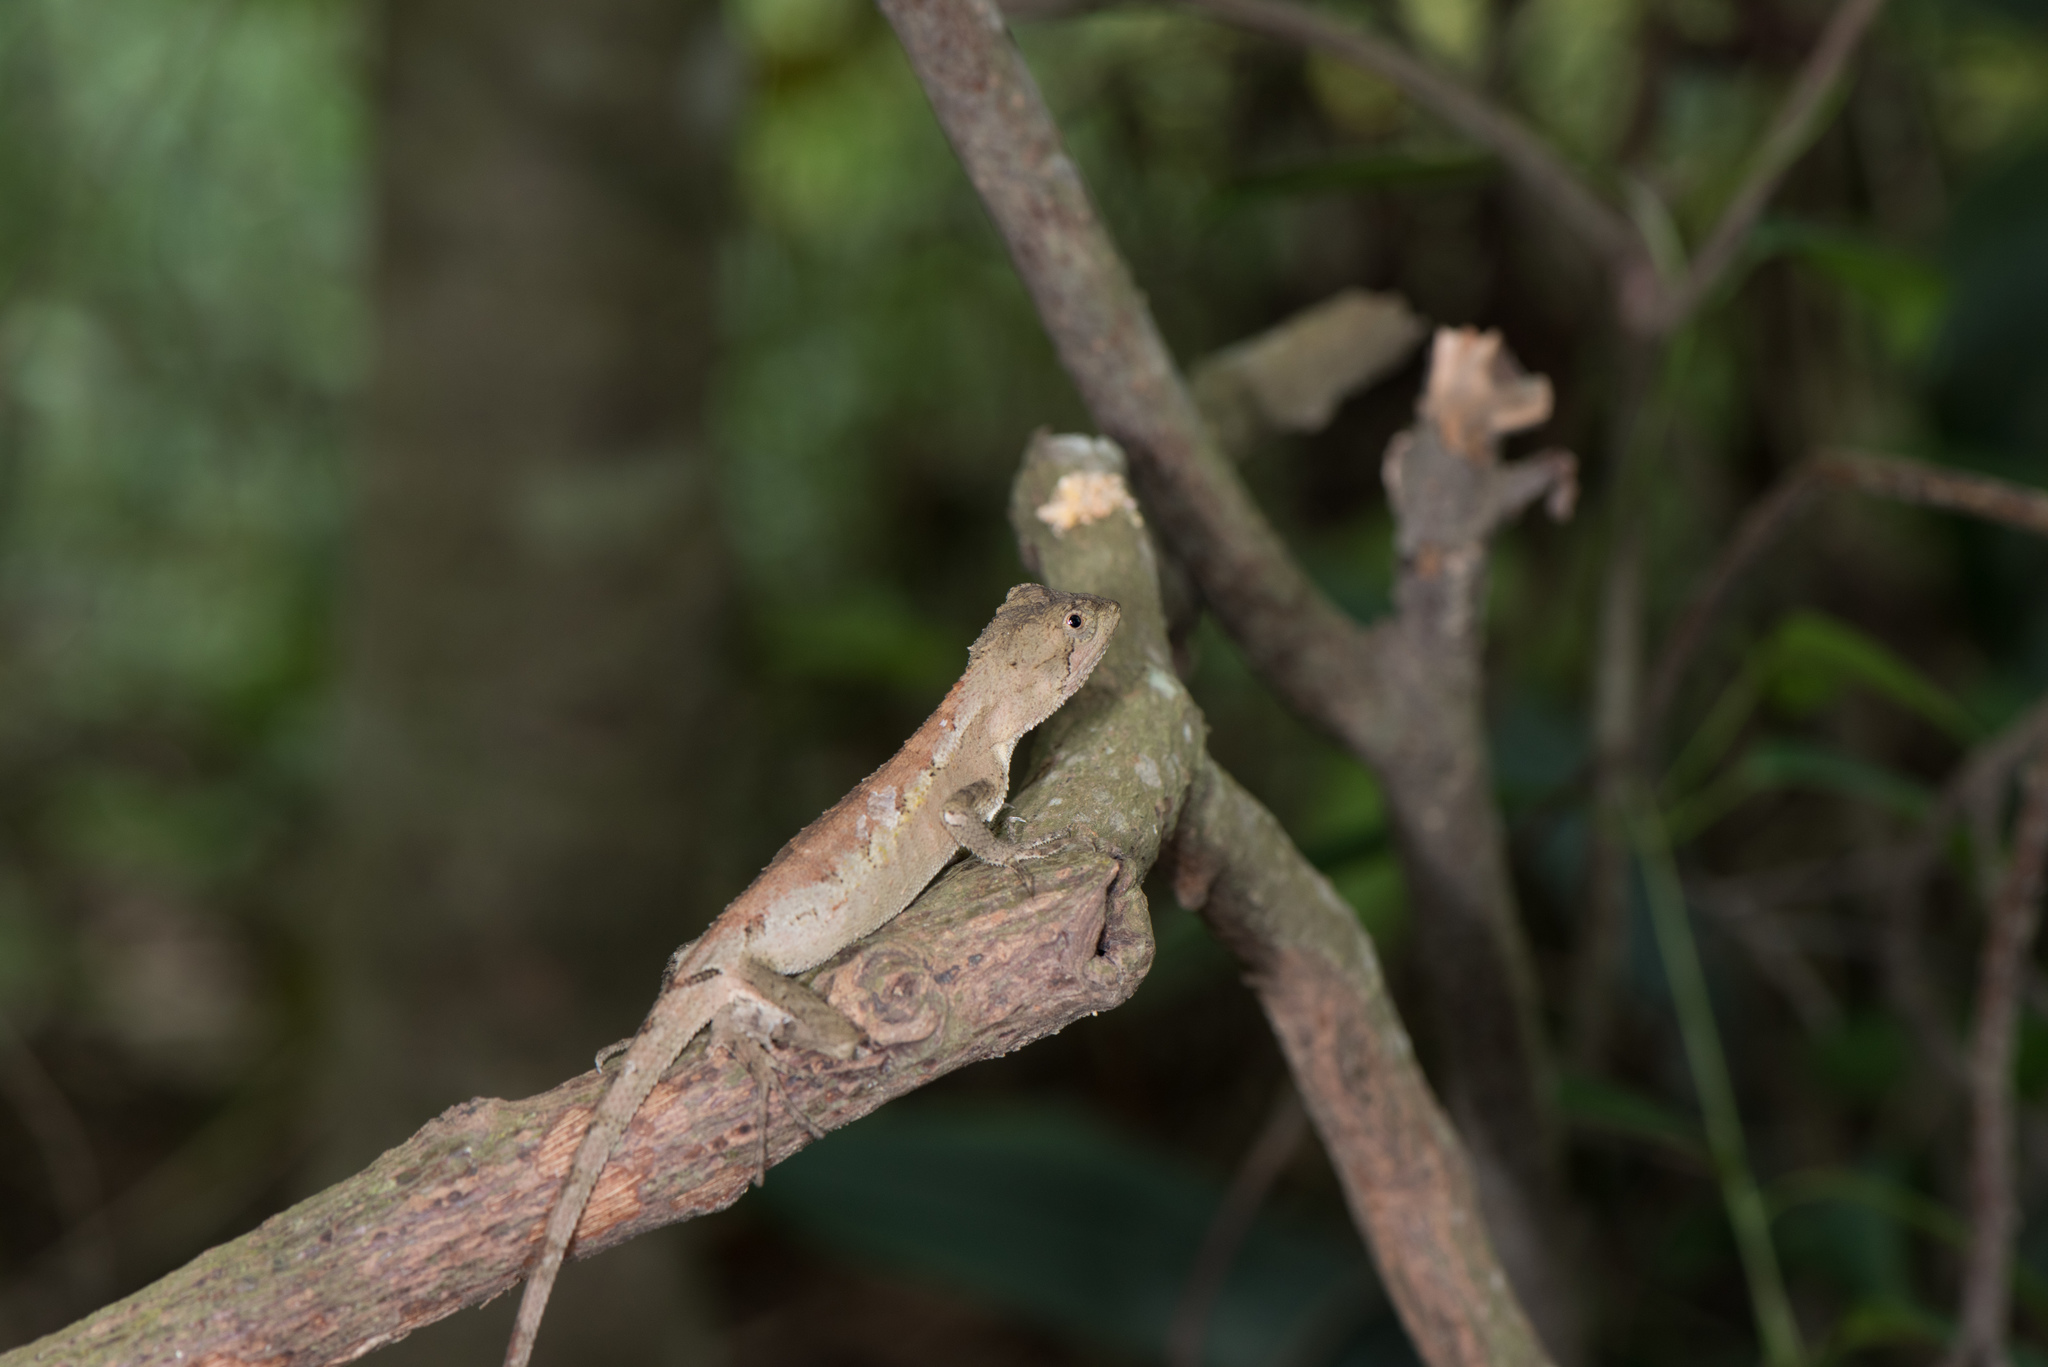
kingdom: Animalia
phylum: Chordata
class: Squamata
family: Agamidae
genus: Diploderma
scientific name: Diploderma swinhonis
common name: Taiwan japalure
